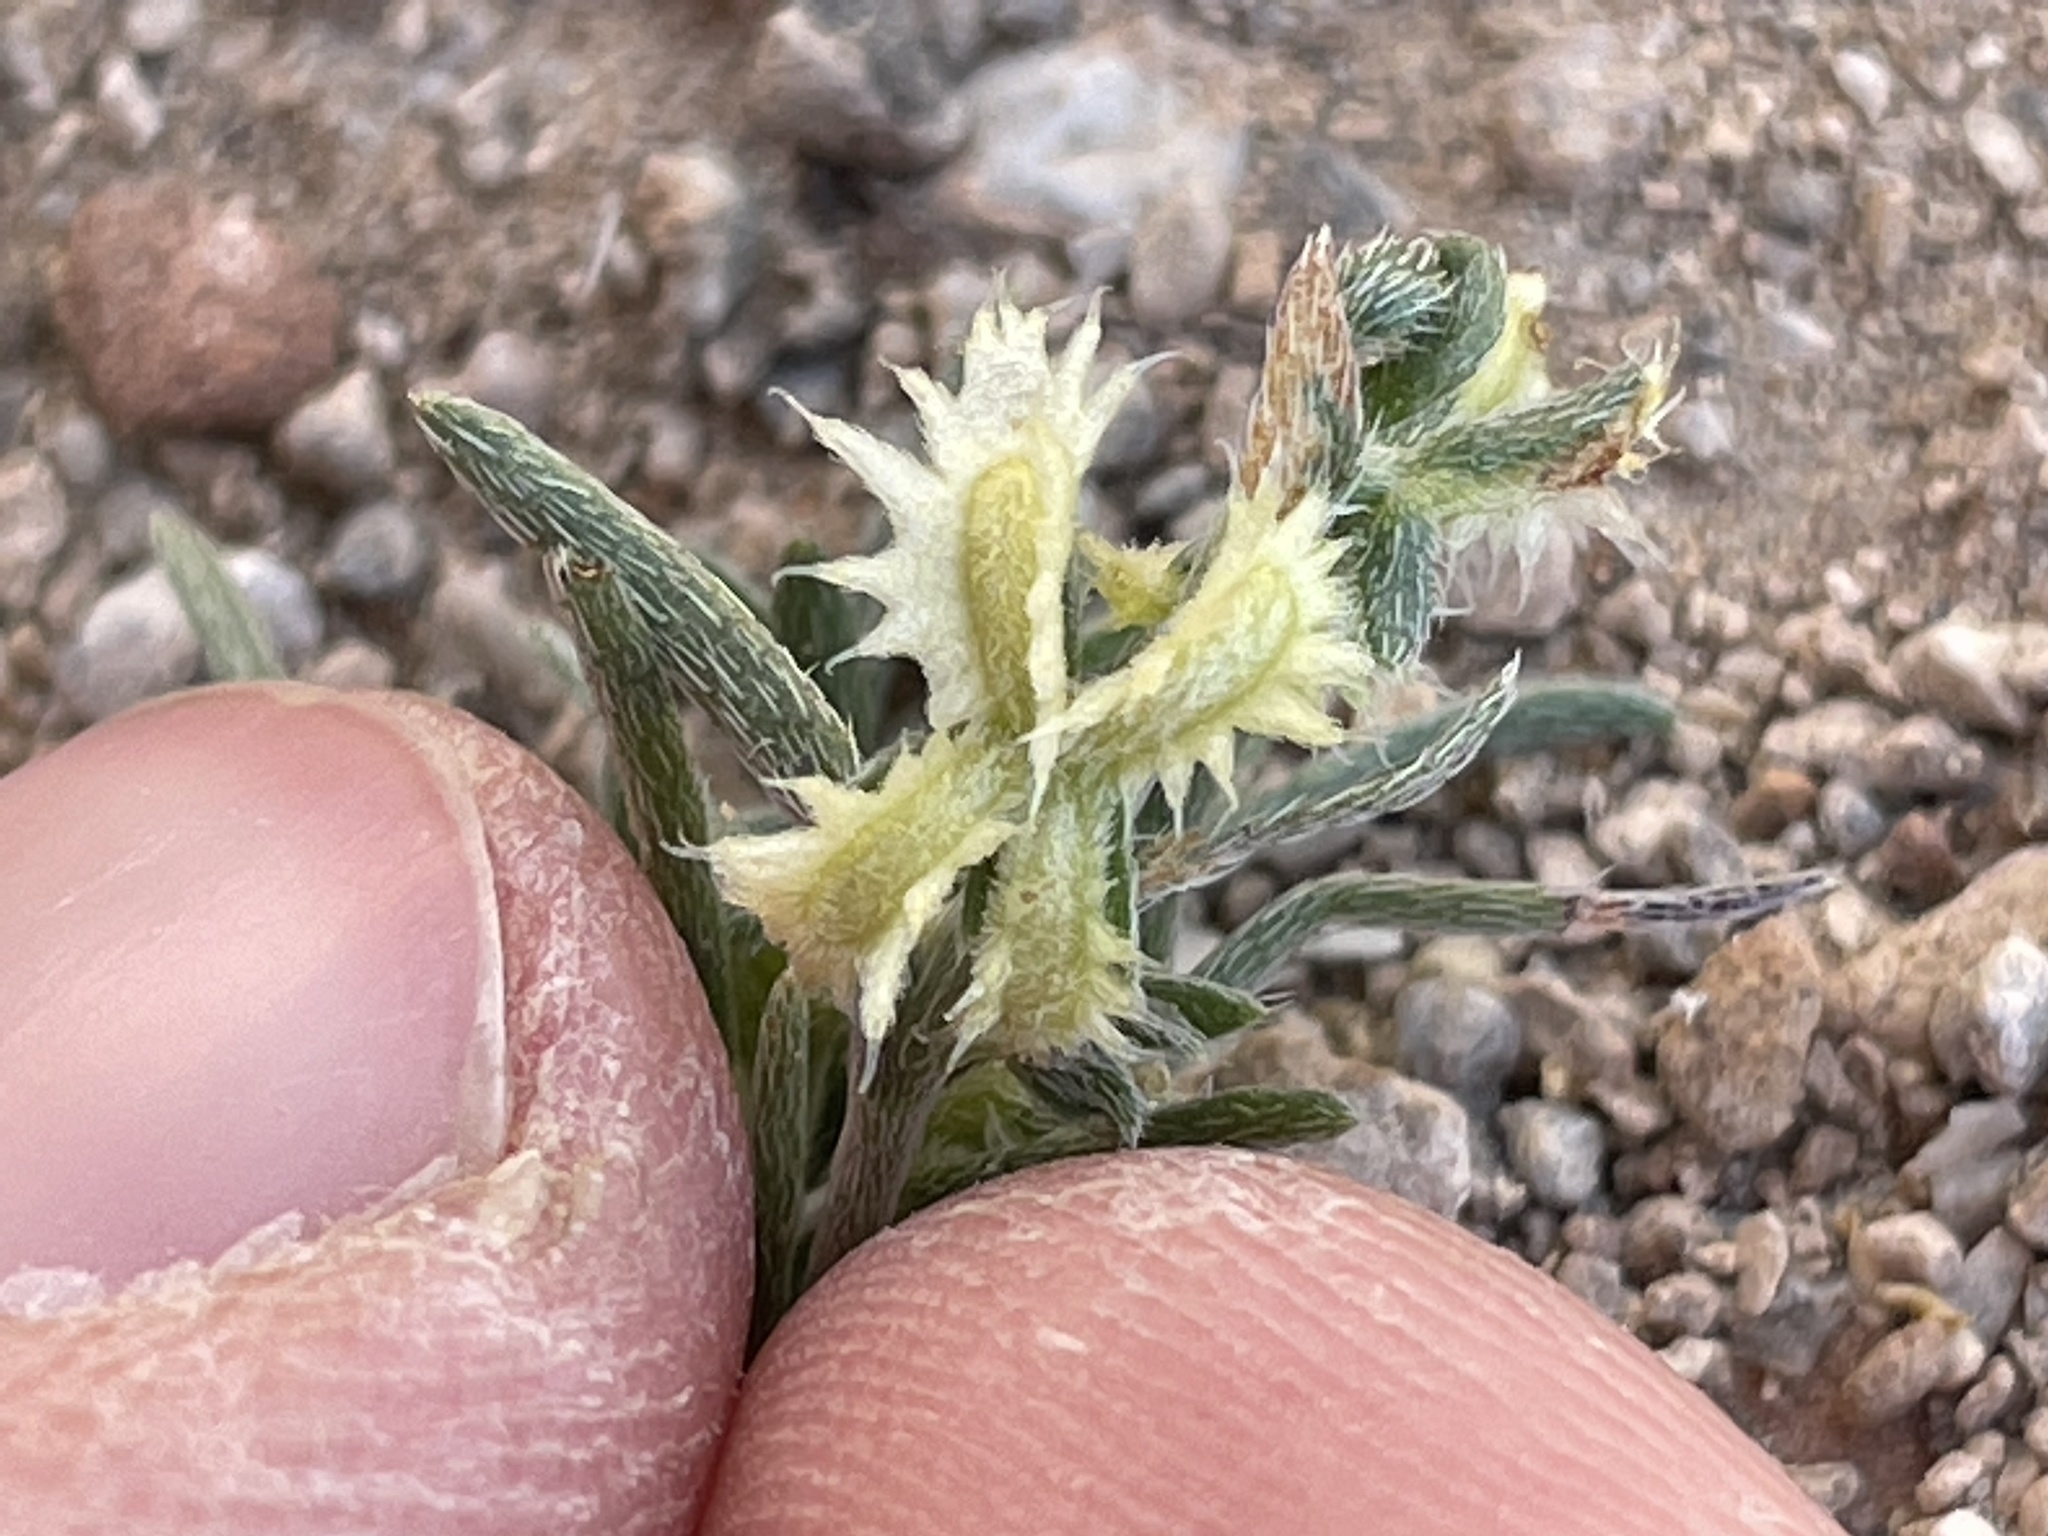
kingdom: Plantae
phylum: Tracheophyta
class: Magnoliopsida
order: Boraginales
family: Boraginaceae
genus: Pectocarya
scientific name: Pectocarya platycarpa
